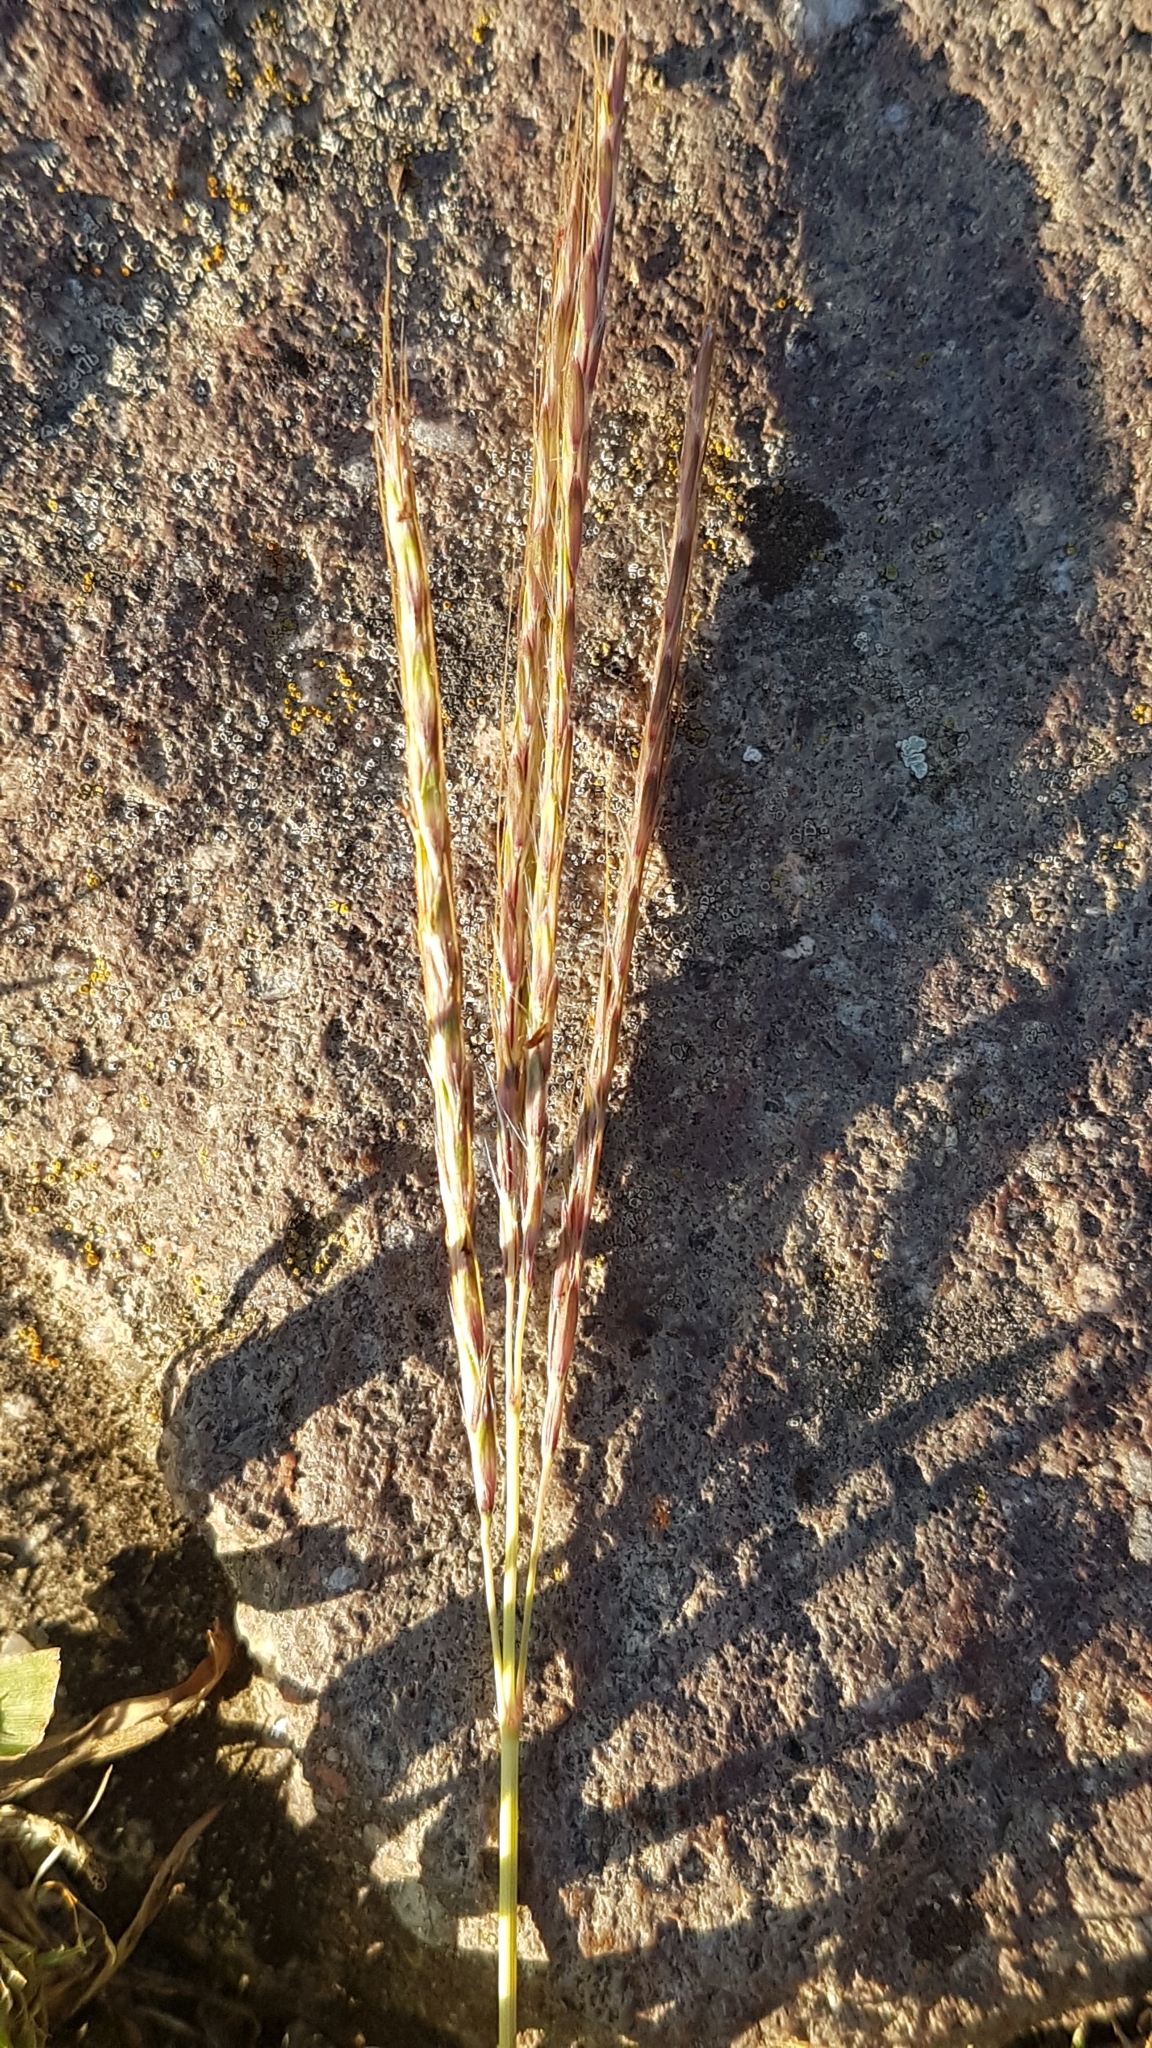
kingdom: Plantae
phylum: Tracheophyta
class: Liliopsida
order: Poales
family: Poaceae
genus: Bothriochloa
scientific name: Bothriochloa ischaemum
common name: Yellow bluestem
